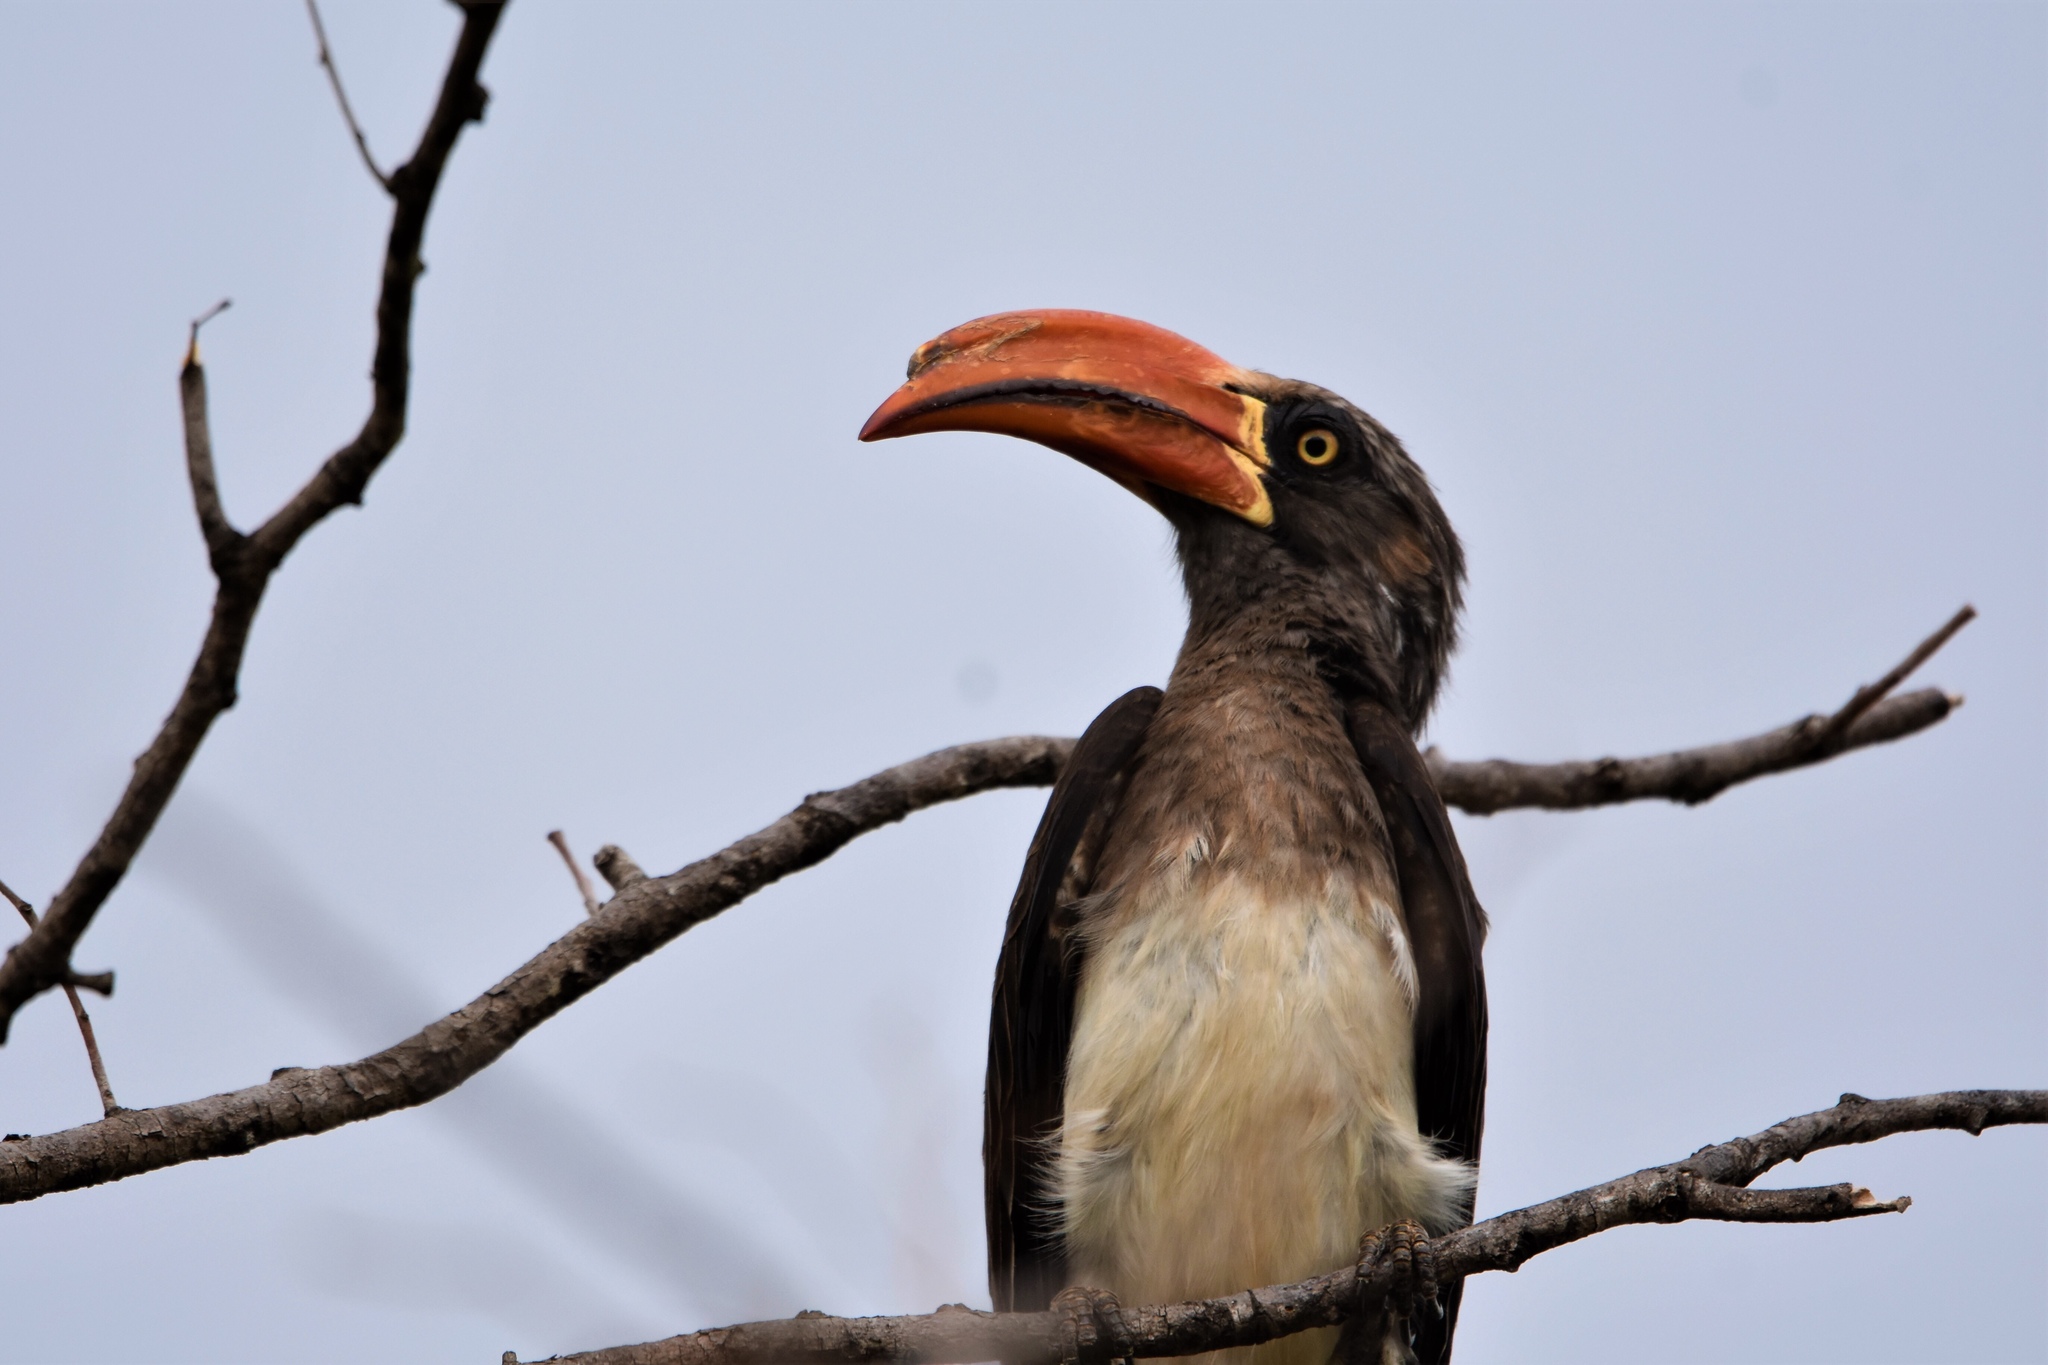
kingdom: Animalia
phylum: Chordata
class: Aves
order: Bucerotiformes
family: Bucerotidae
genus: Lophoceros
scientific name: Lophoceros alboterminatus
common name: Crowned hornbill
